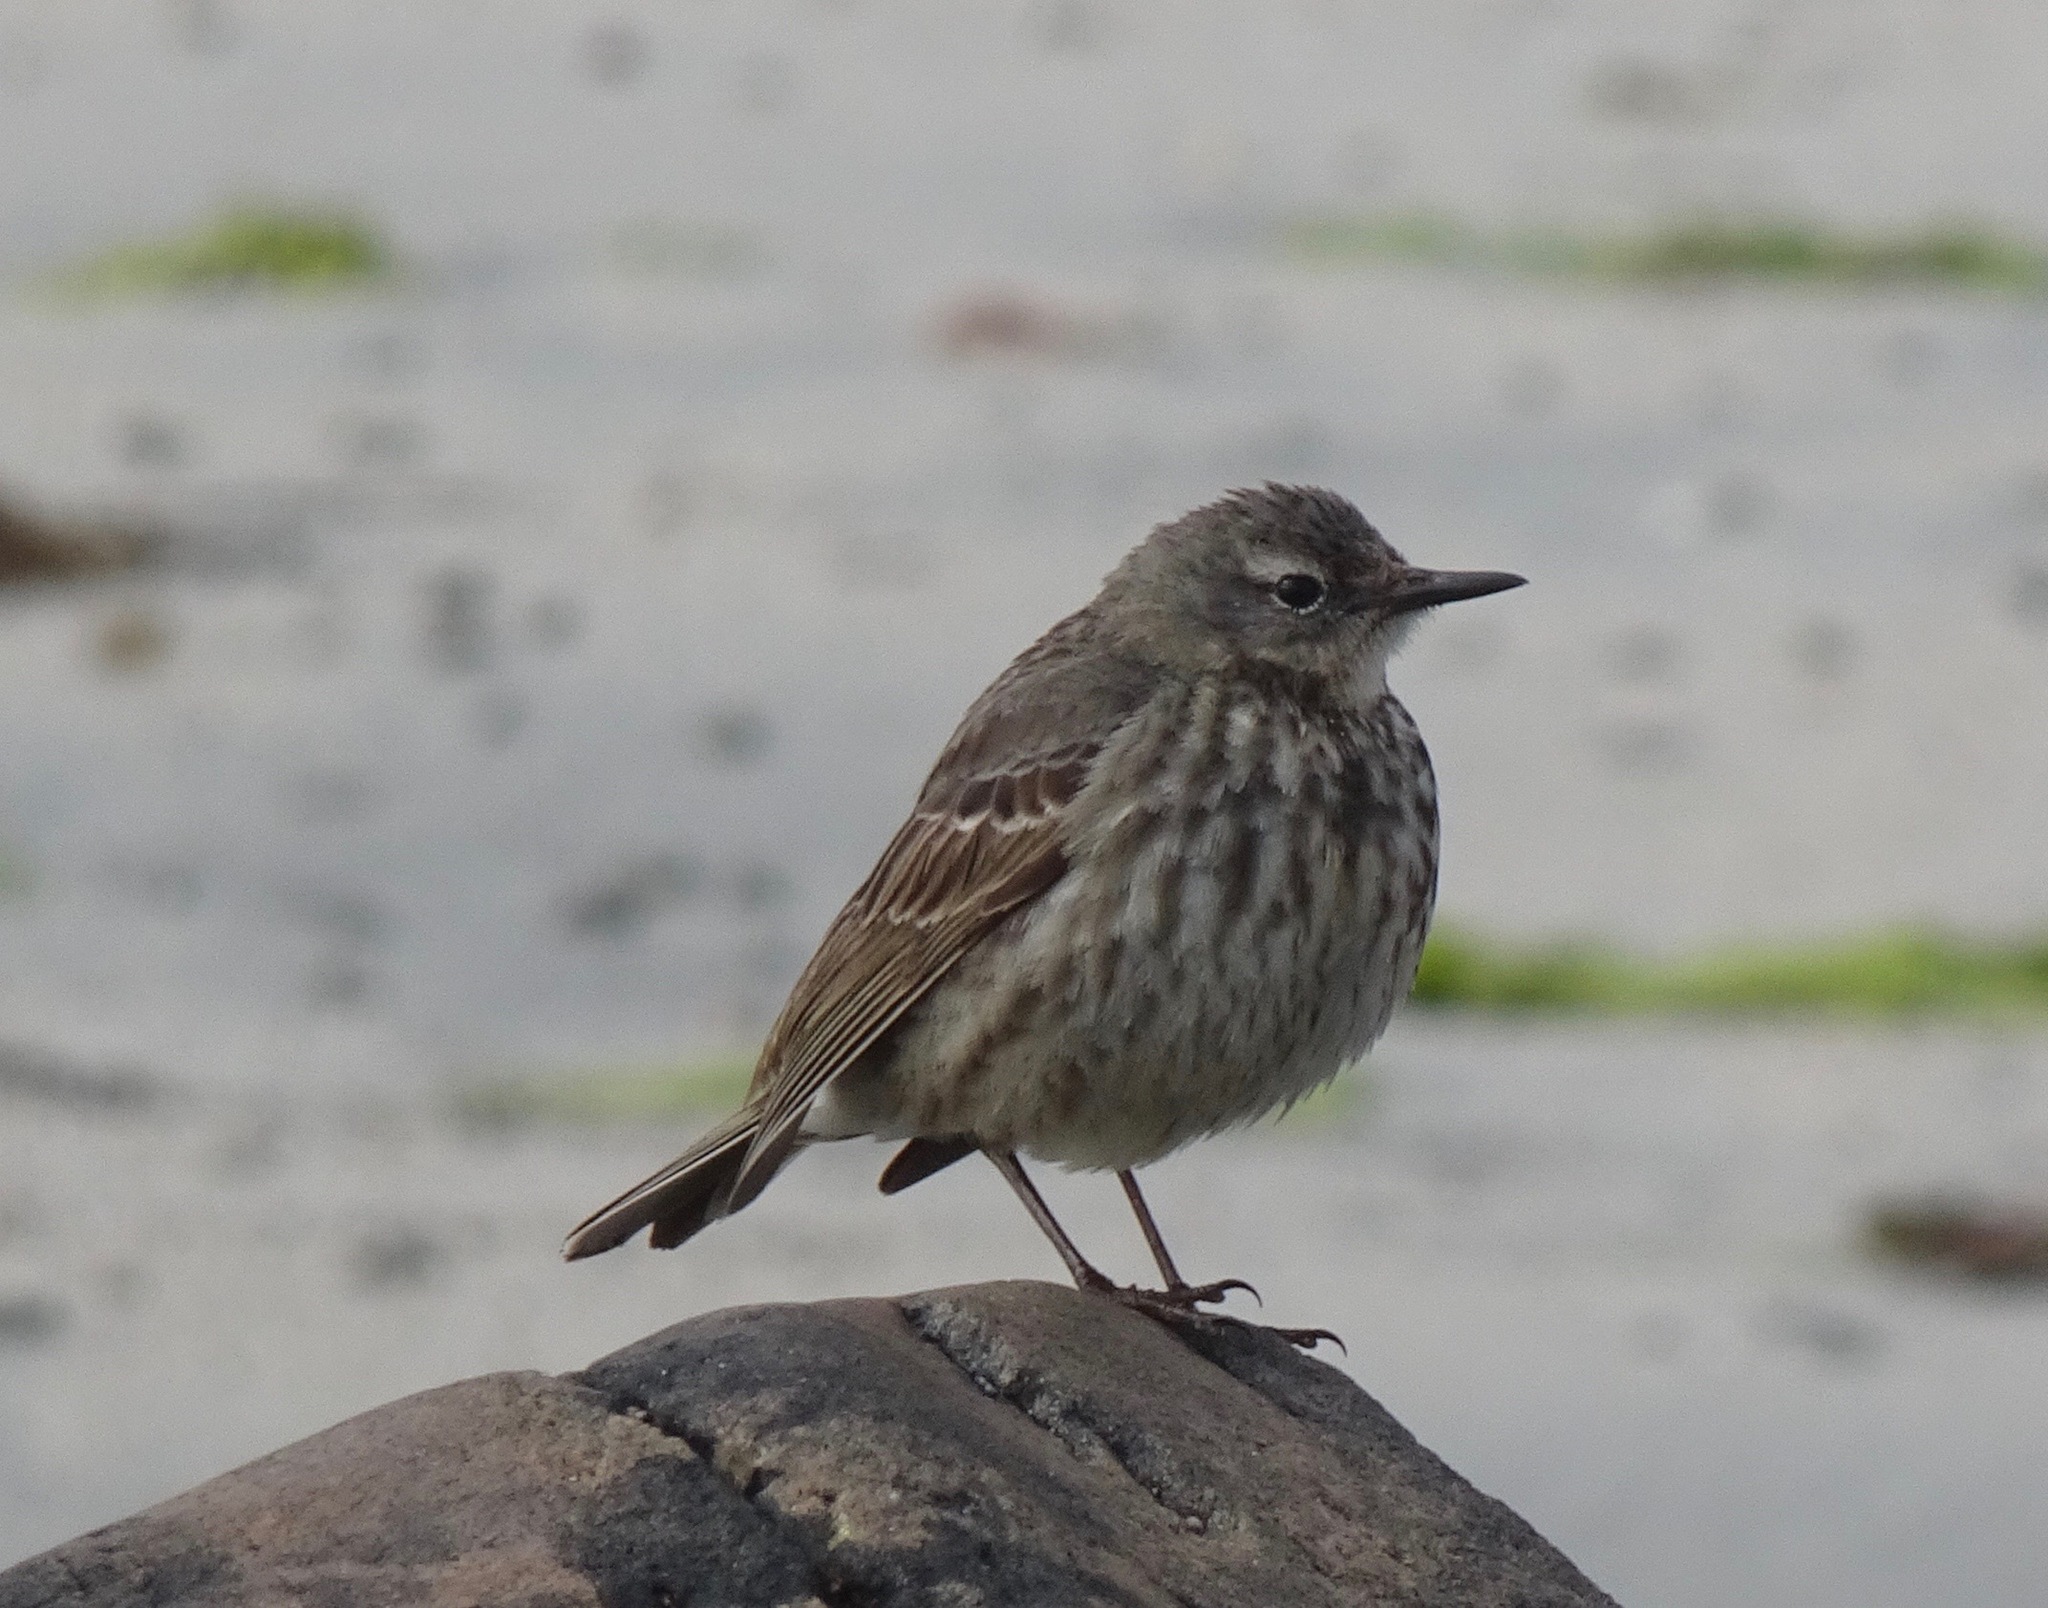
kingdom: Animalia
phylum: Chordata
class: Aves
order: Passeriformes
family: Motacillidae
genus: Anthus
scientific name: Anthus petrosus
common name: Eurasian rock pipit
